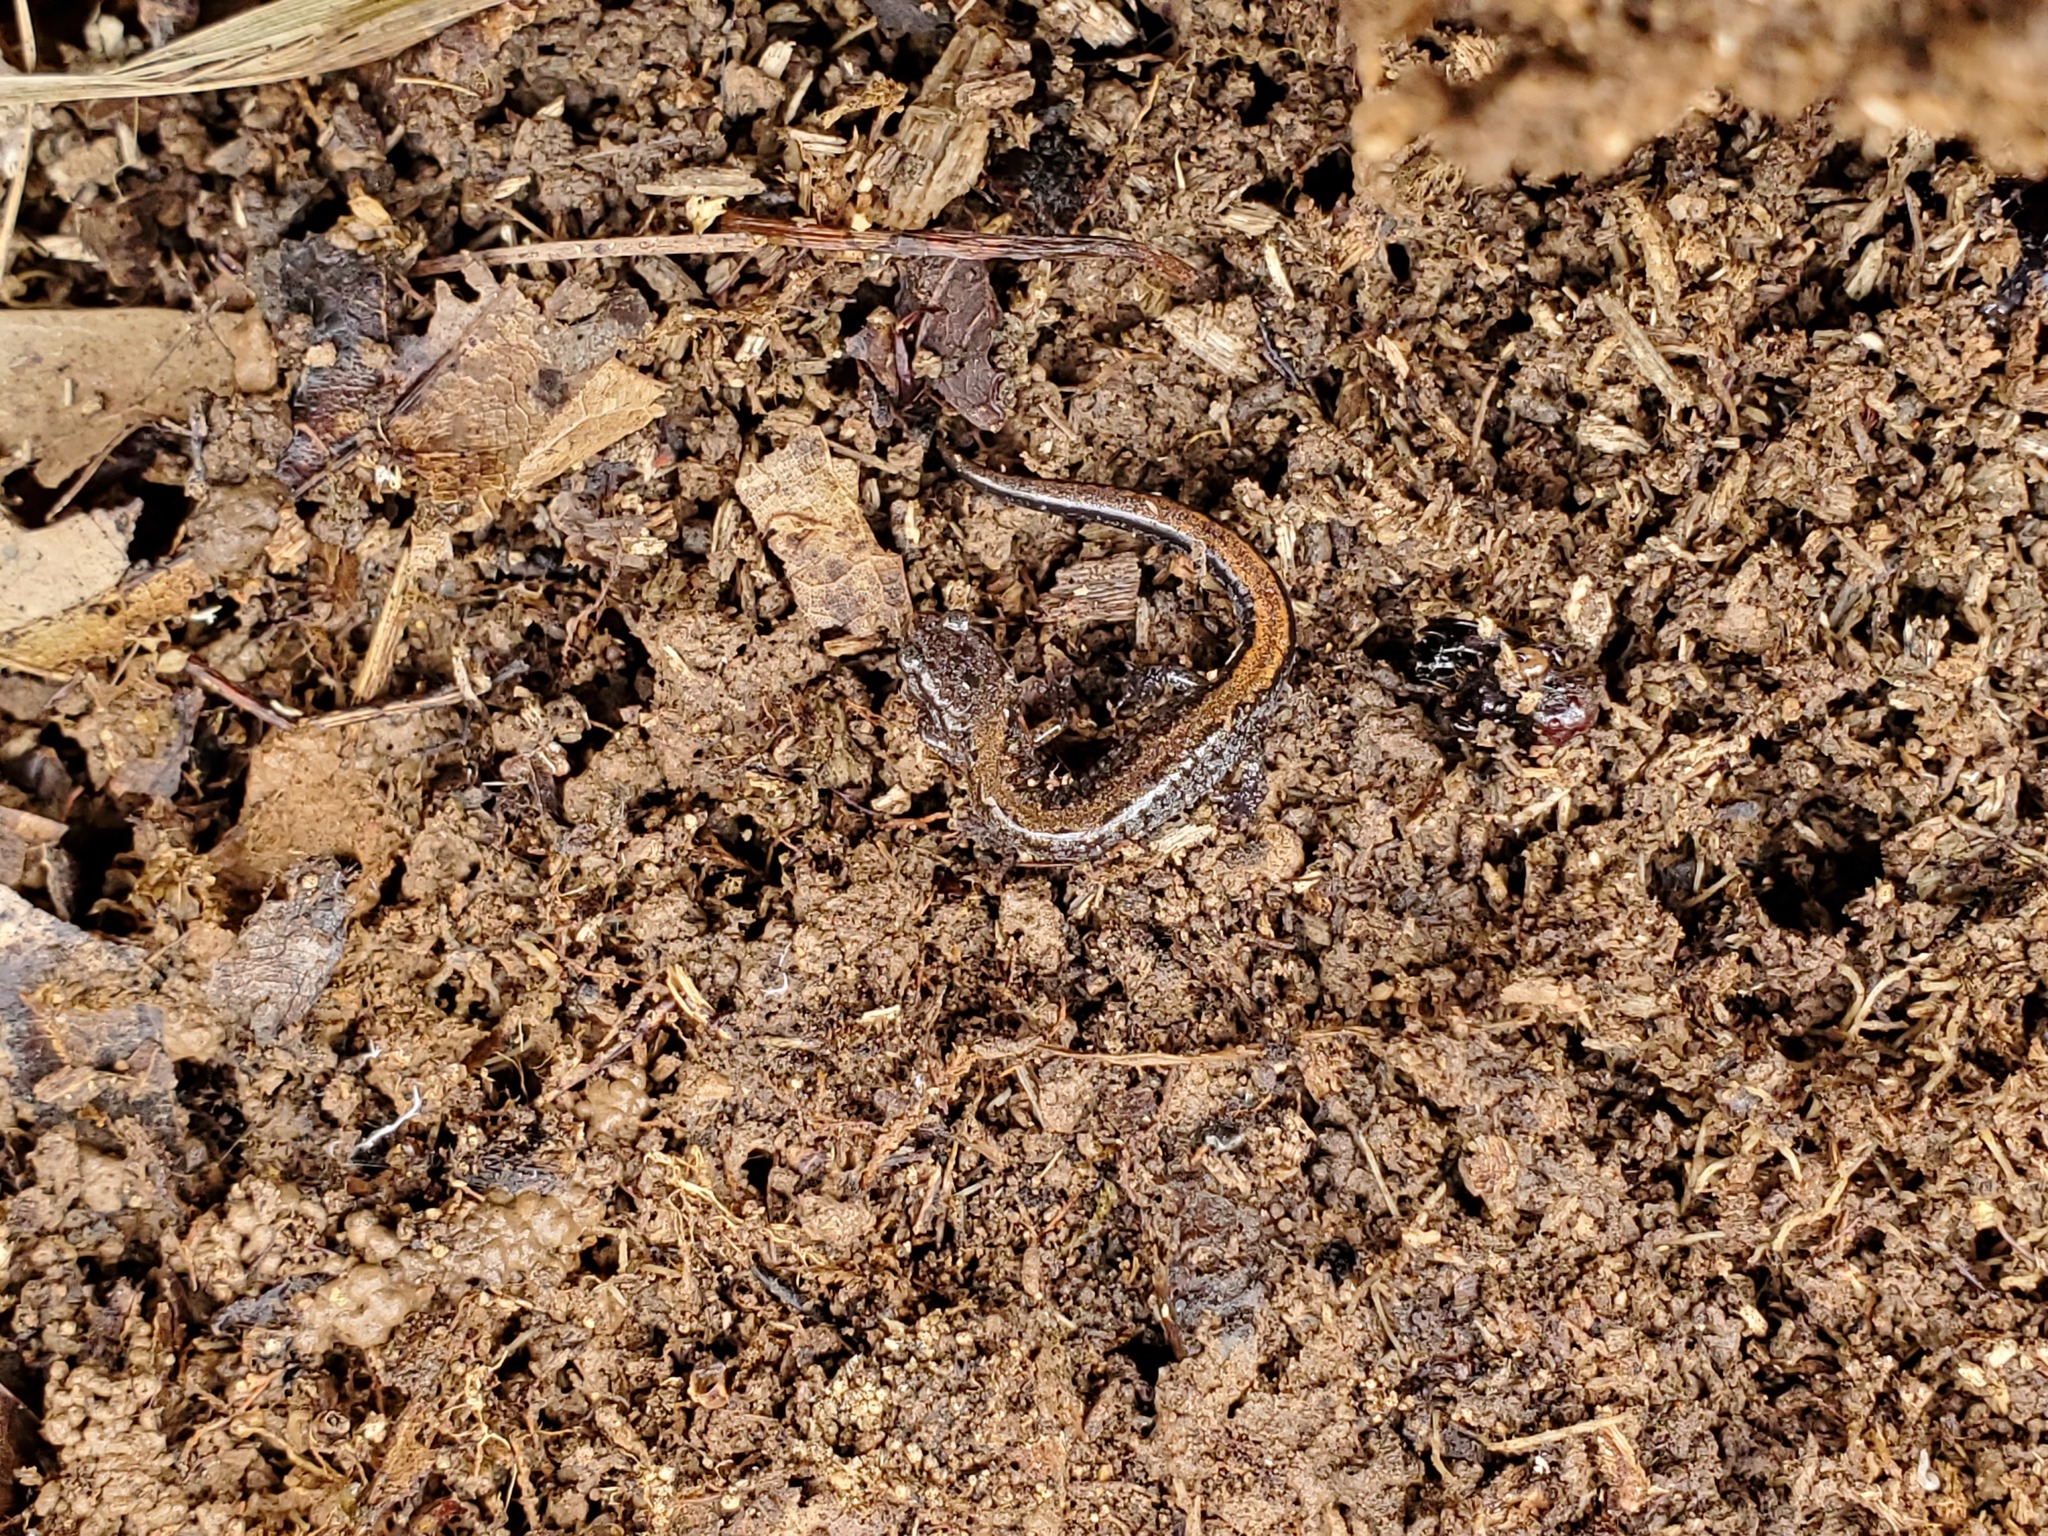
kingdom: Animalia
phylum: Chordata
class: Amphibia
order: Caudata
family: Plethodontidae
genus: Plethodon
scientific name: Plethodon dorsalis
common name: Northern zigzag salamander
